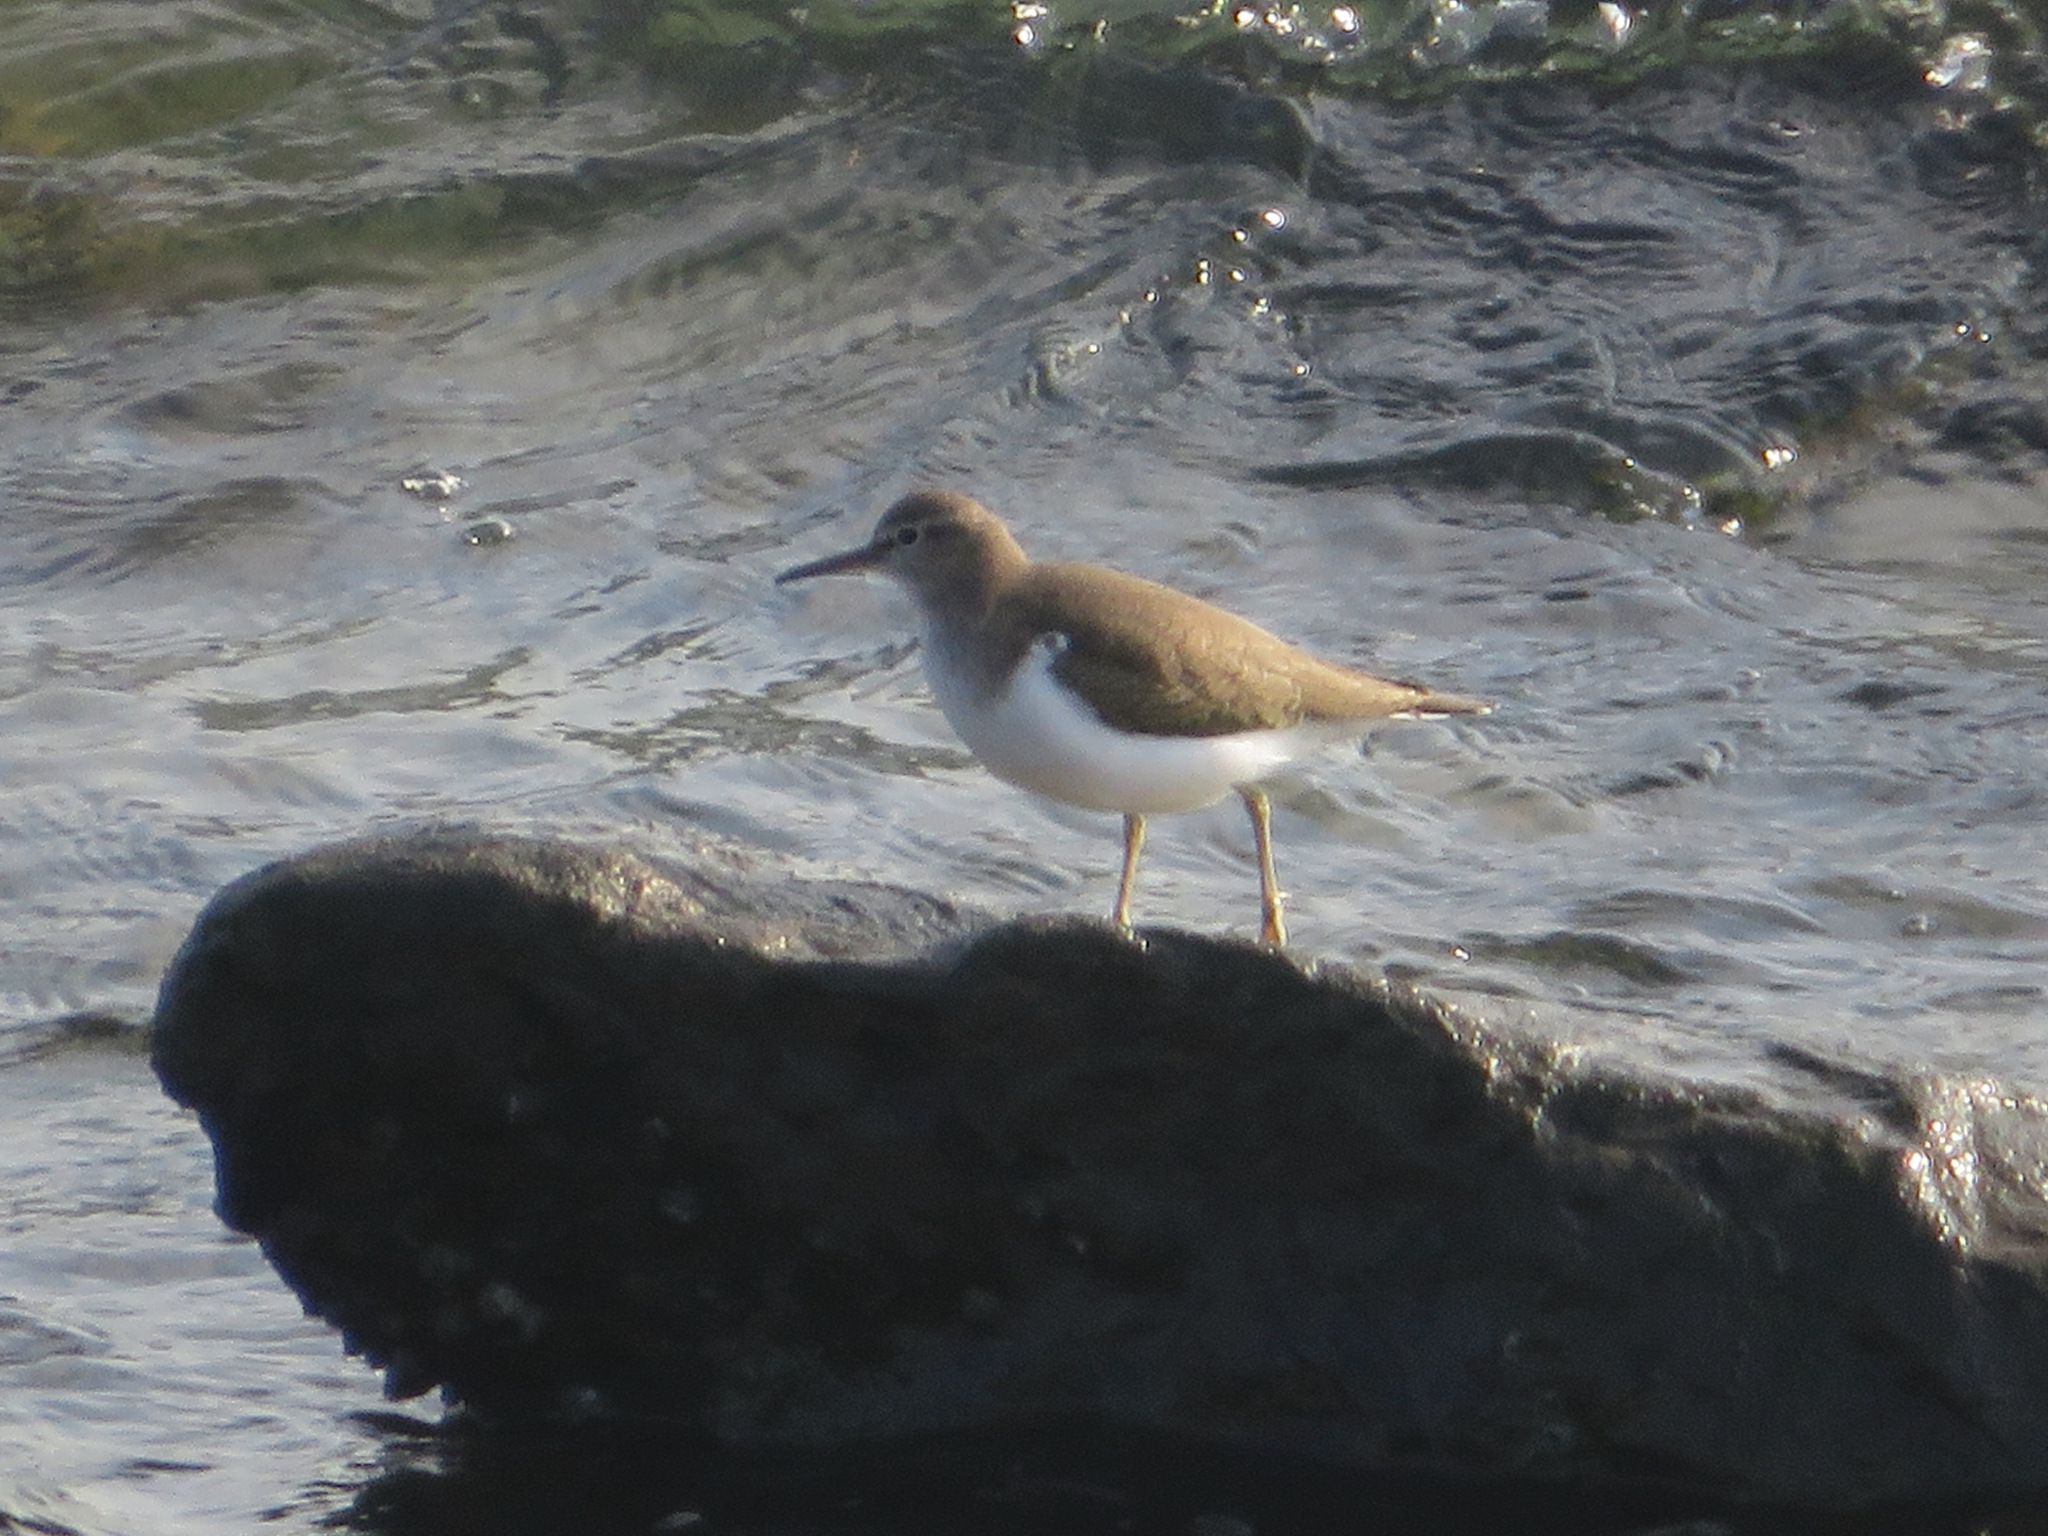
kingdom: Animalia
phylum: Chordata
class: Aves
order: Charadriiformes
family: Scolopacidae
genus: Actitis
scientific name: Actitis hypoleucos
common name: Common sandpiper
